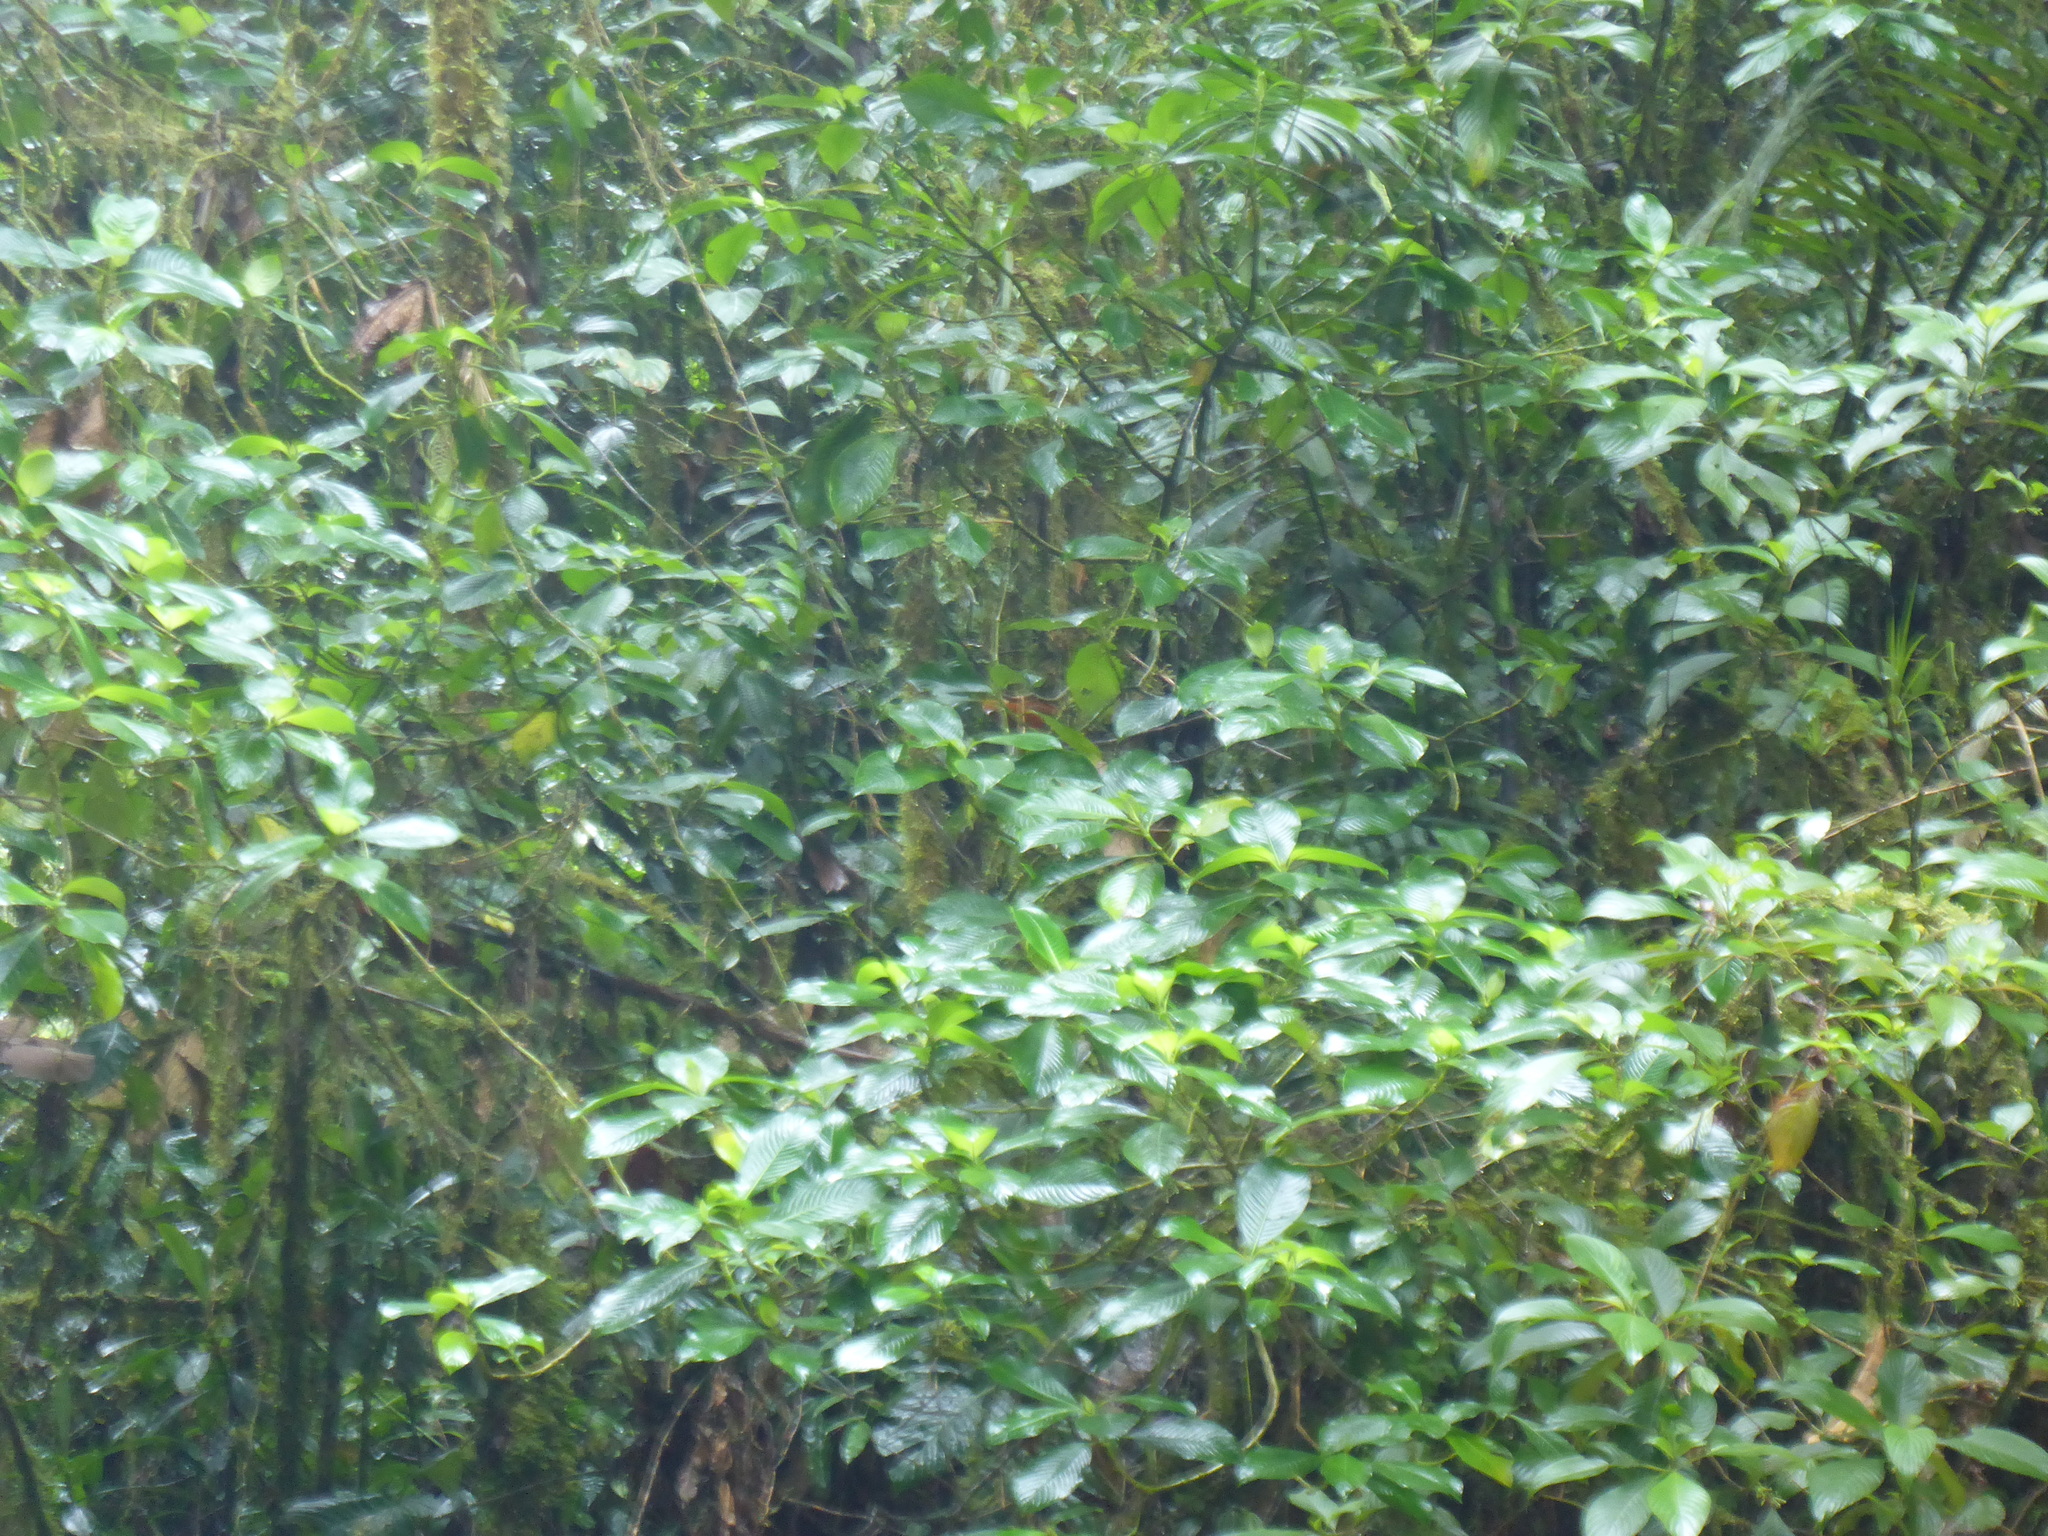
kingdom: Animalia
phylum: Chordata
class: Aves
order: Passeriformes
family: Cotingidae
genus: Rupicola
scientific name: Rupicola peruvianus
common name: Andean cock-of-the-rock
